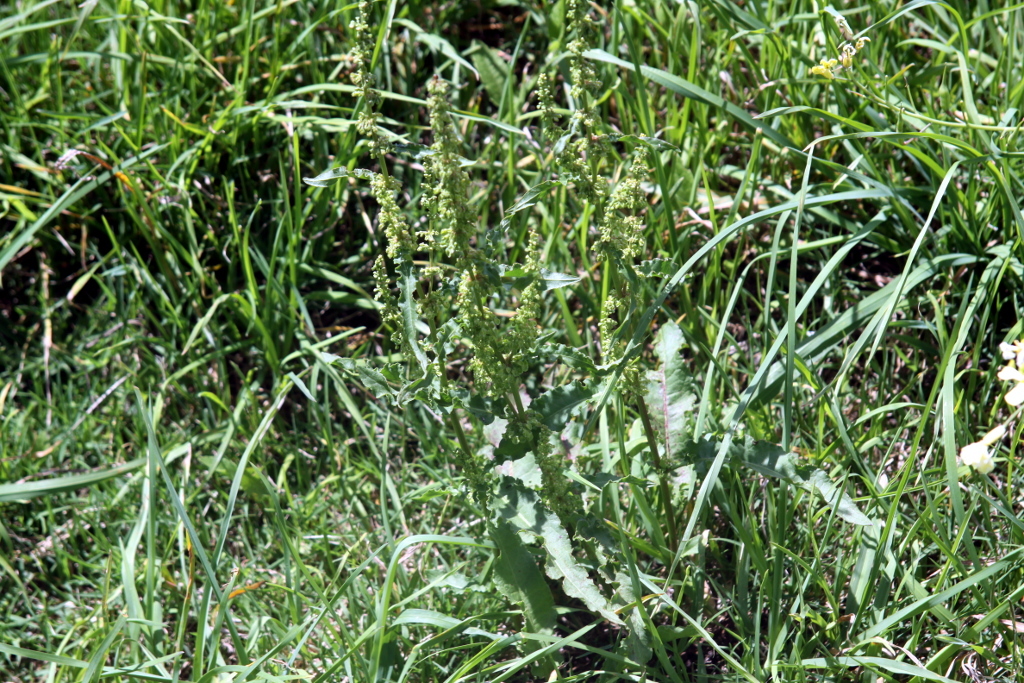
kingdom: Plantae
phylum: Tracheophyta
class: Magnoliopsida
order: Caryophyllales
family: Polygonaceae
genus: Rumex
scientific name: Rumex crispus
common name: Curled dock
